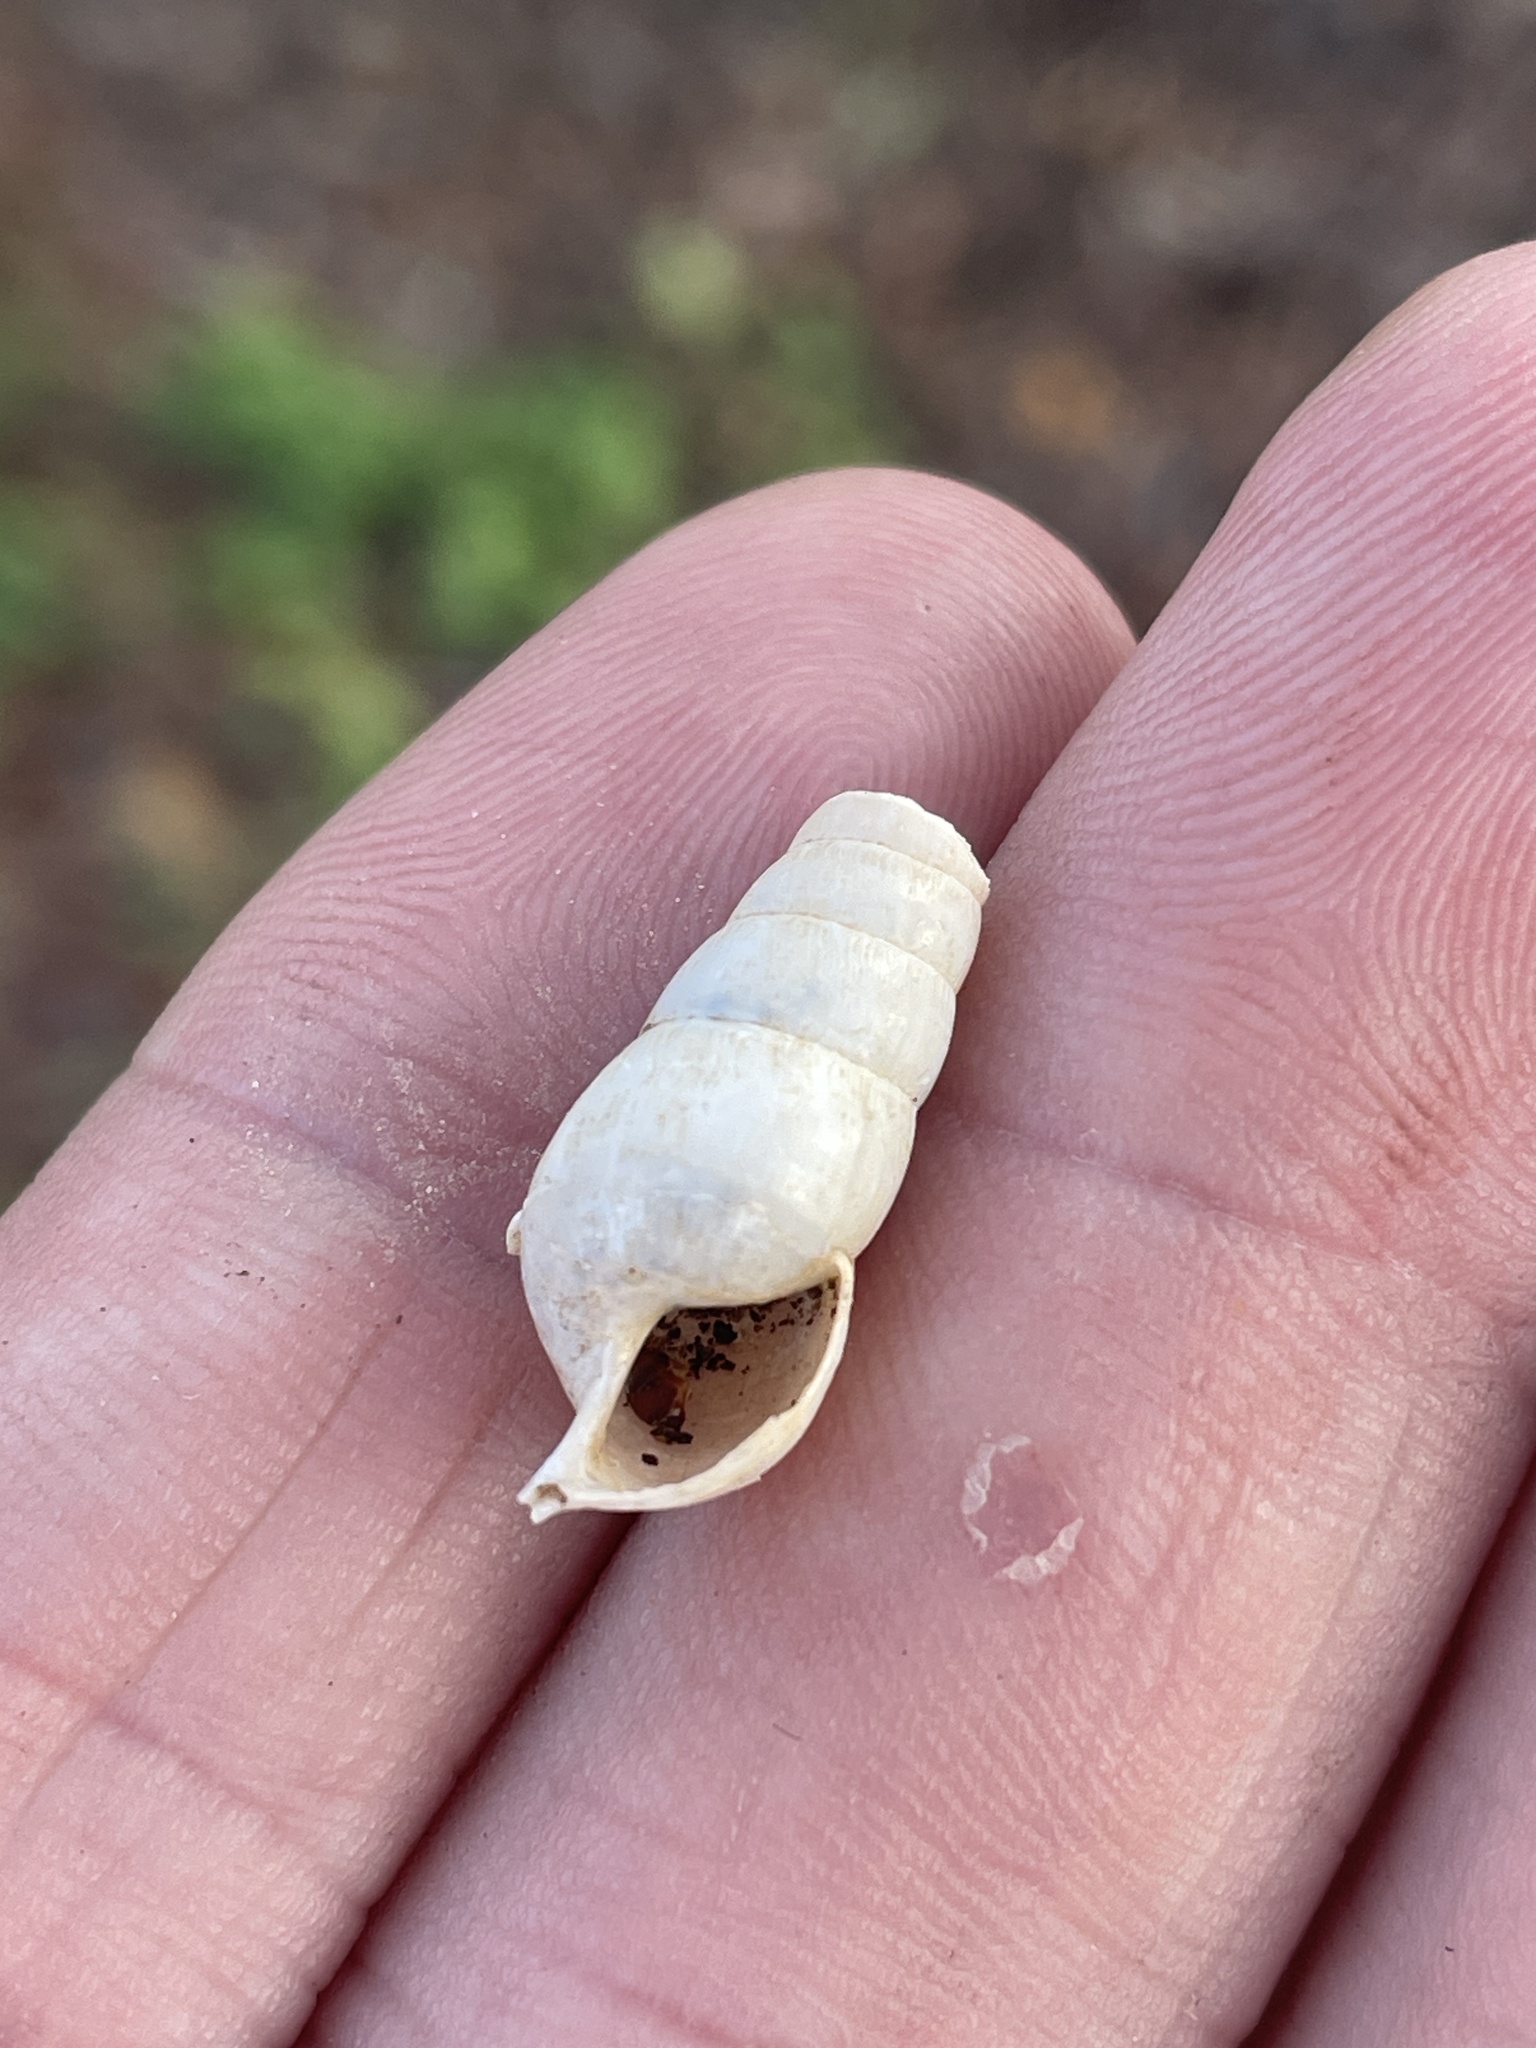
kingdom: Animalia
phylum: Mollusca
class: Gastropoda
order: Stylommatophora
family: Achatinidae
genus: Rumina
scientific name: Rumina decollata
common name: Decollate snail
